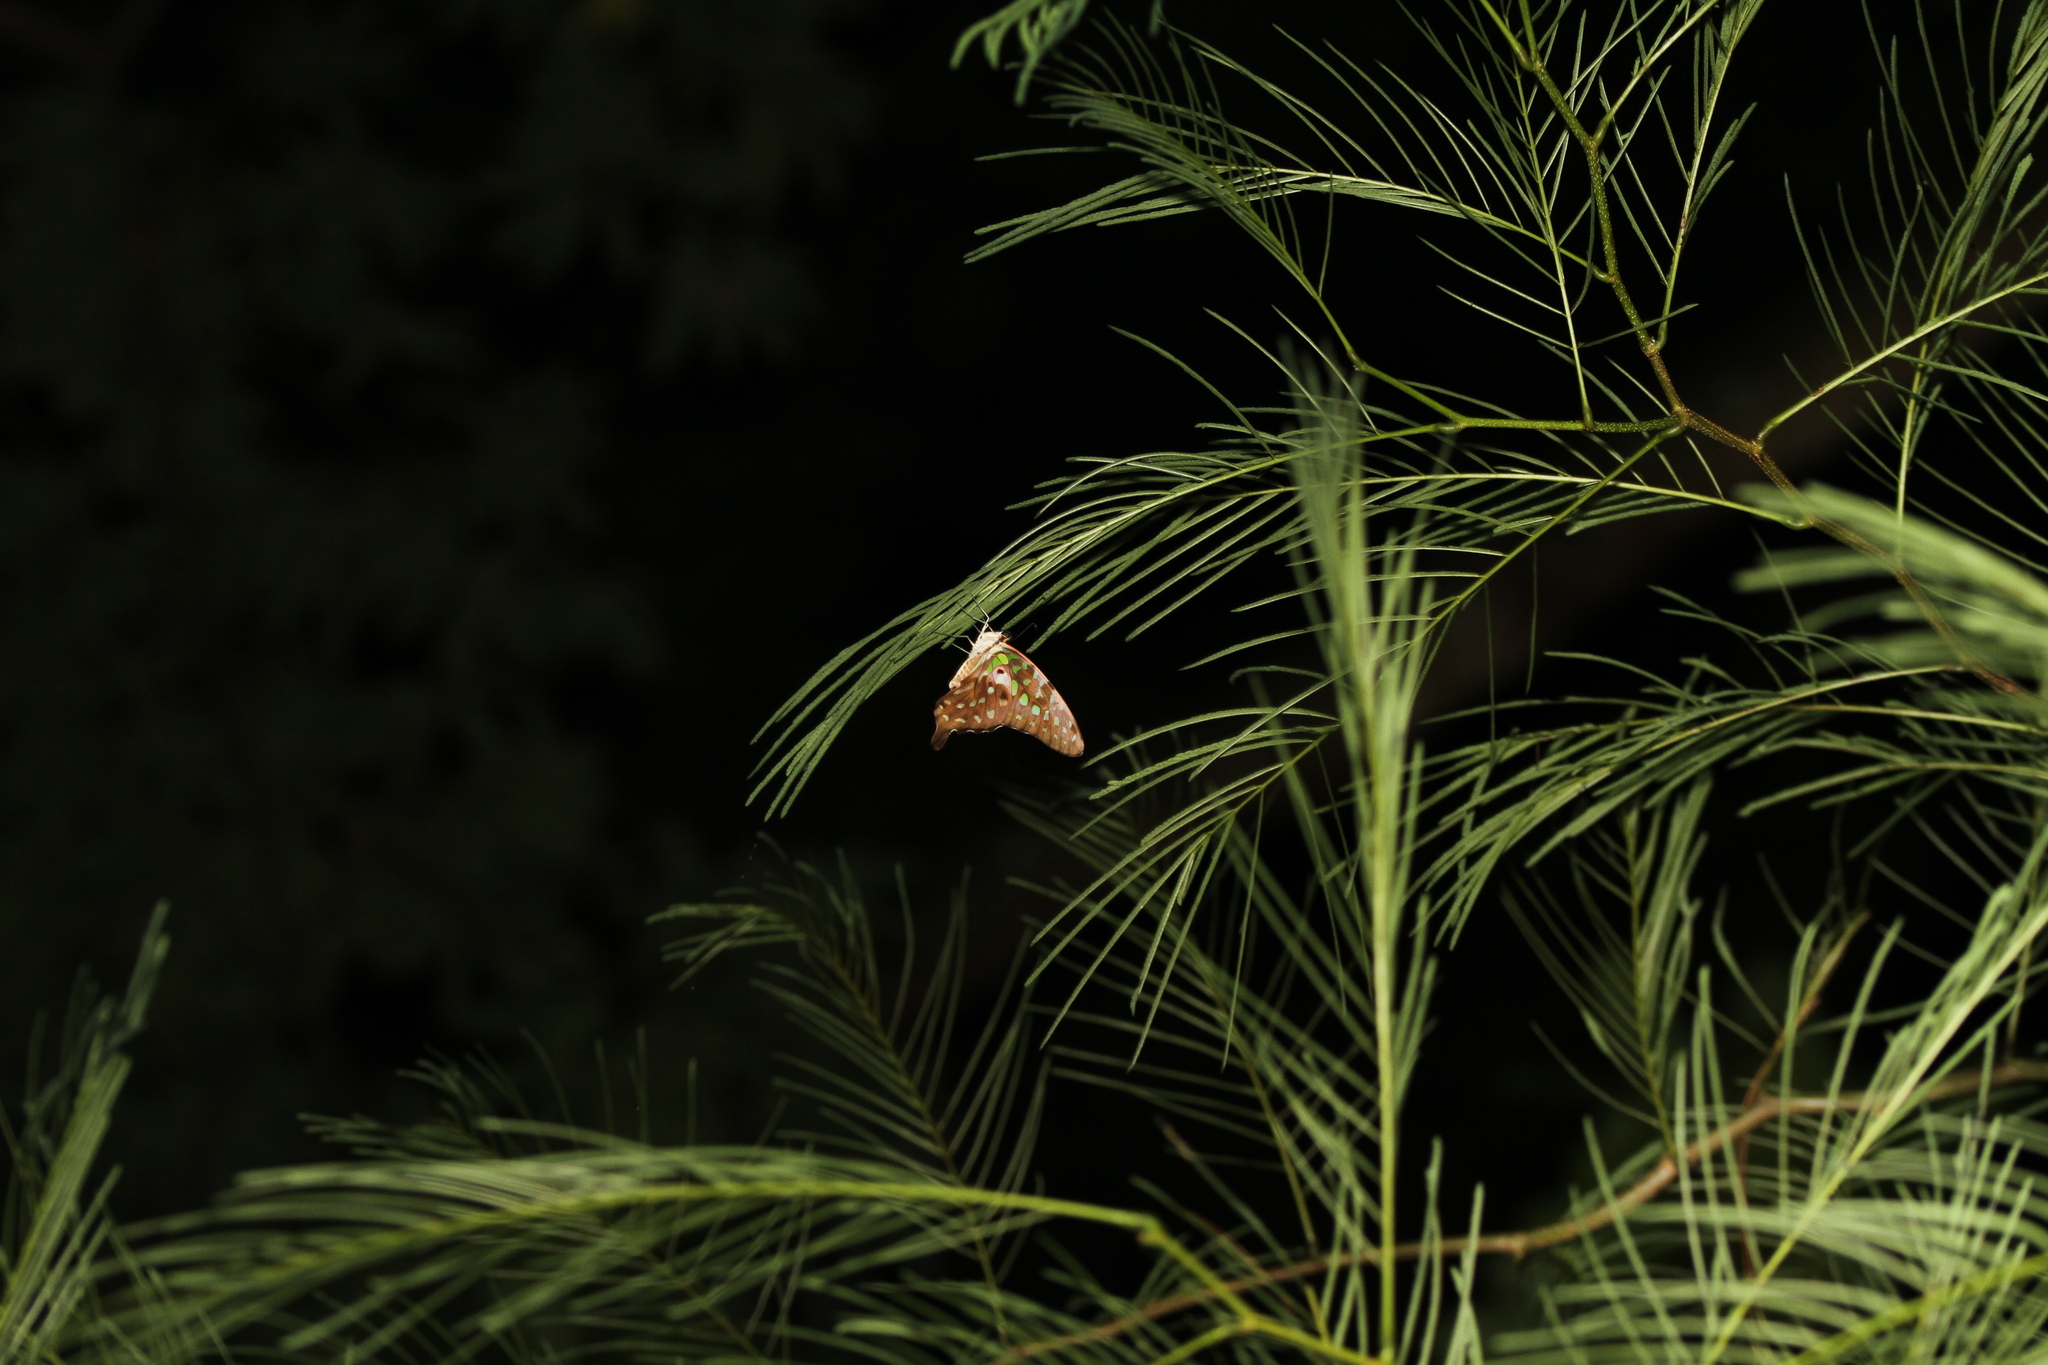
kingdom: Animalia
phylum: Arthropoda
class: Insecta
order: Lepidoptera
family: Papilionidae
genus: Graphium
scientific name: Graphium agamemnon
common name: Tailed jay
